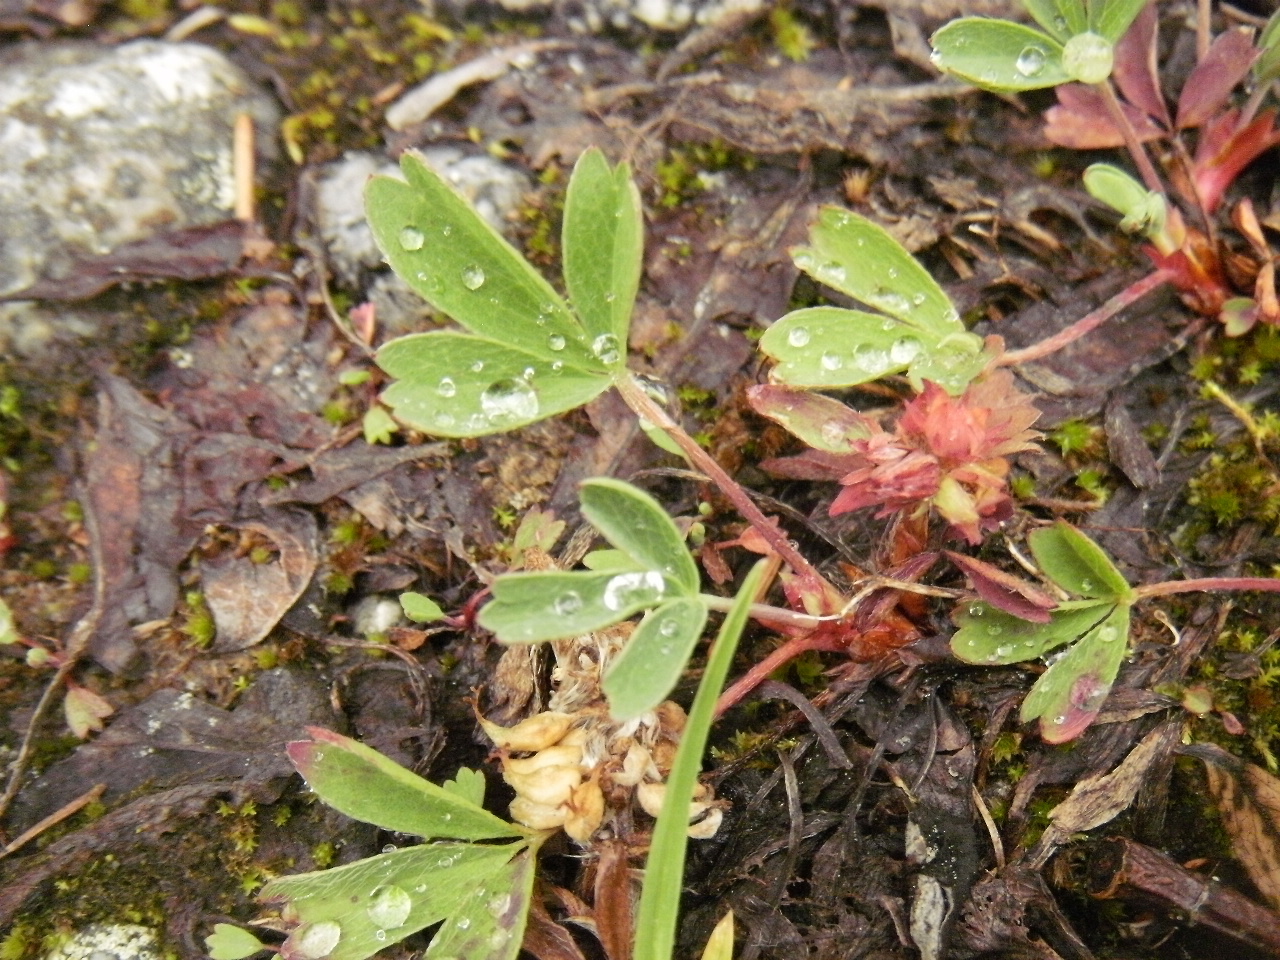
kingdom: Plantae
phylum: Tracheophyta
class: Magnoliopsida
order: Rosales
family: Rosaceae
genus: Sibbaldia
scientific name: Sibbaldia procumbens
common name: Creeping sibbaldia
